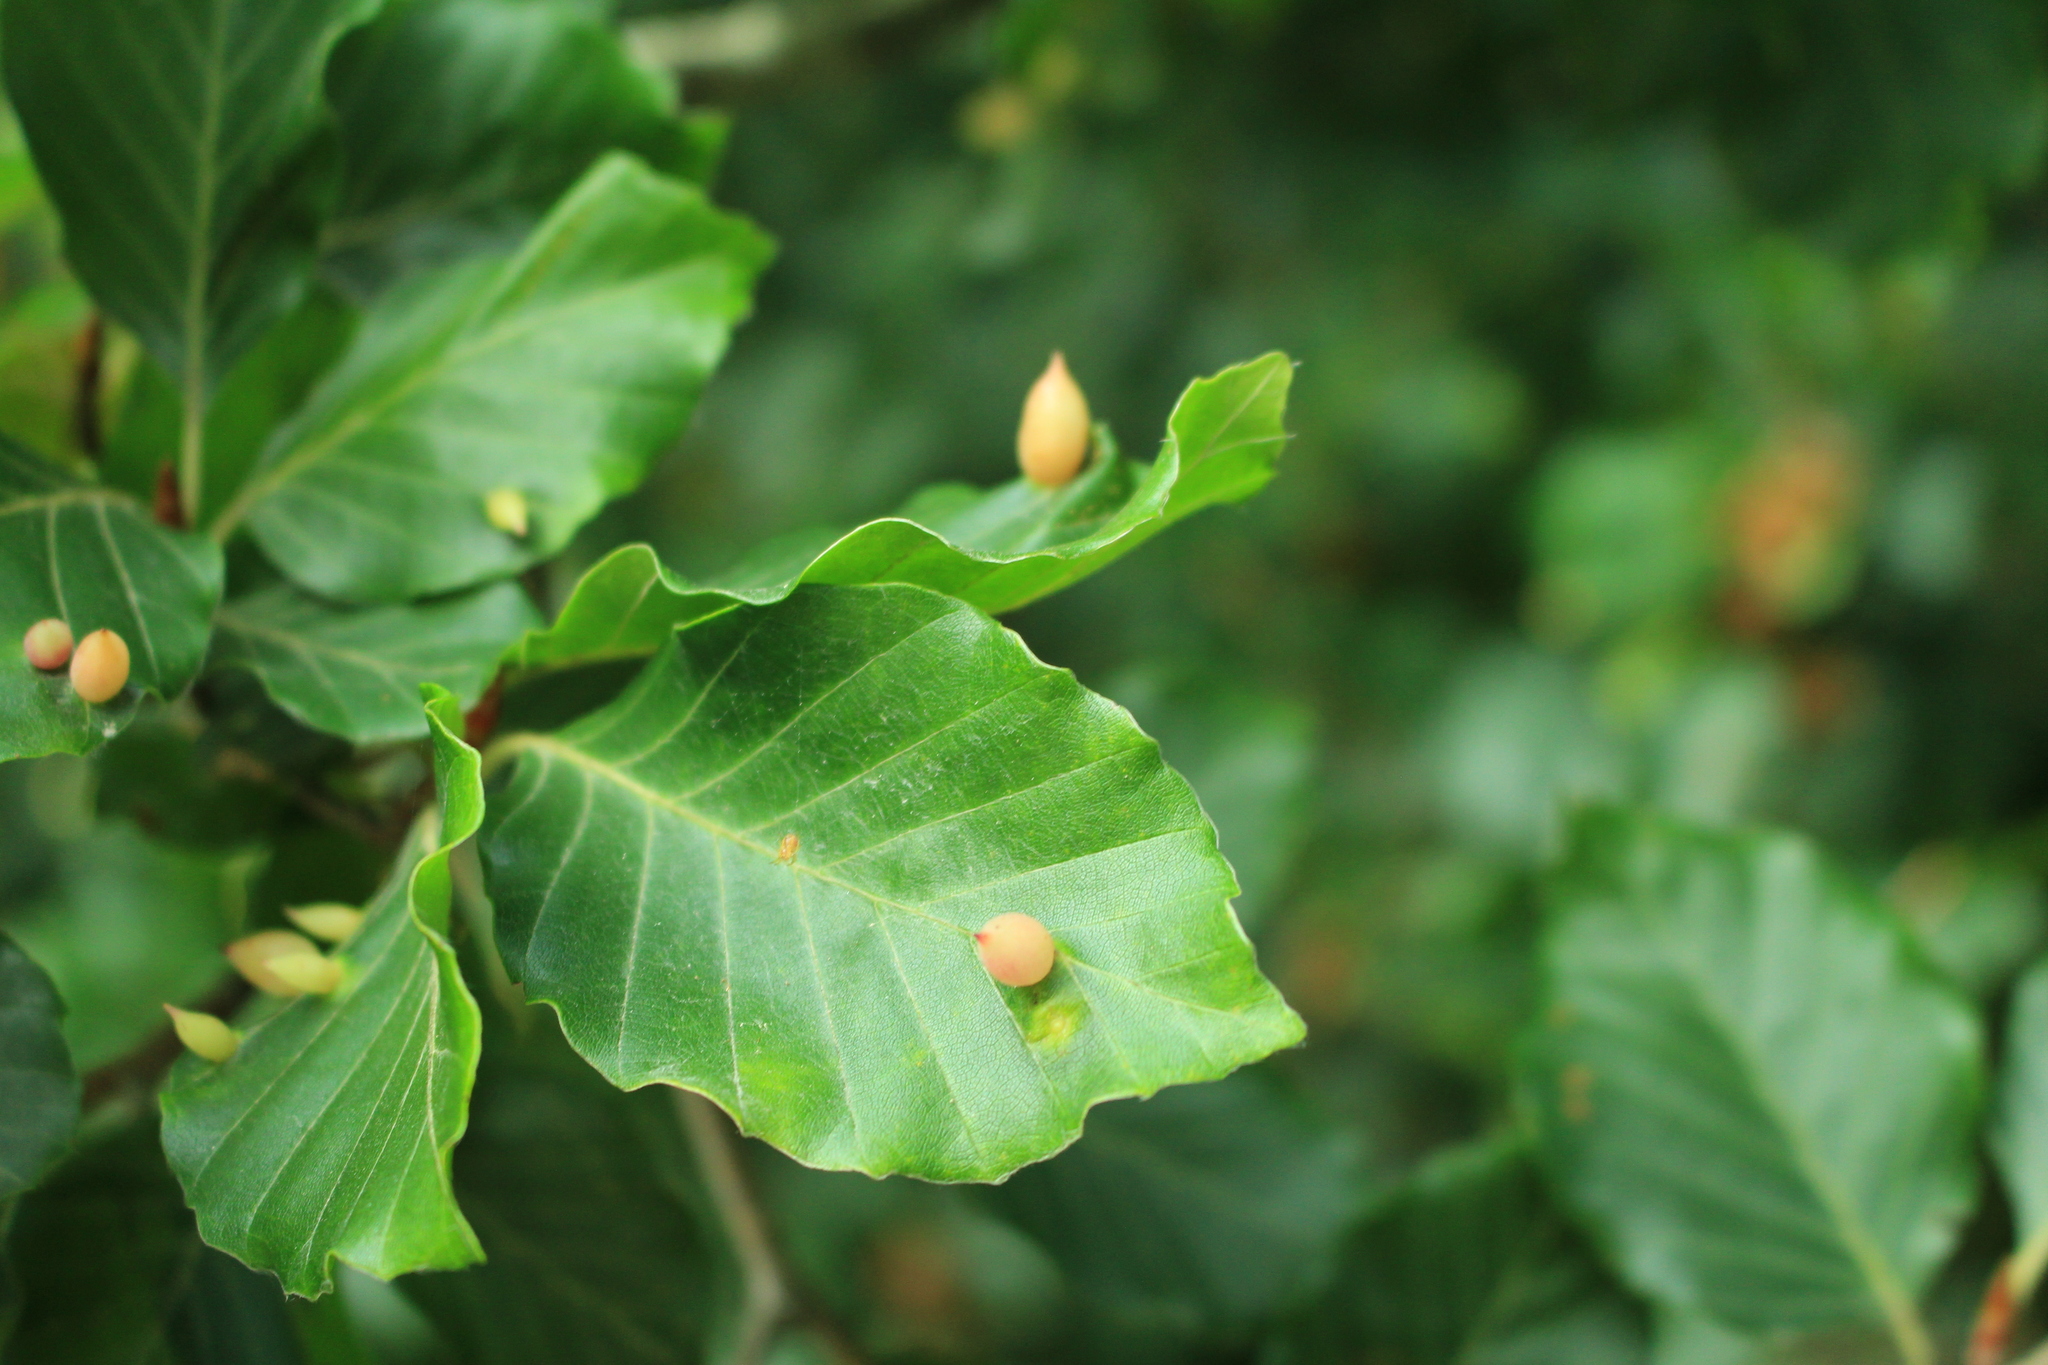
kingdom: Animalia
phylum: Arthropoda
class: Insecta
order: Diptera
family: Cecidomyiidae
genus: Mikiola
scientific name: Mikiola fagi
